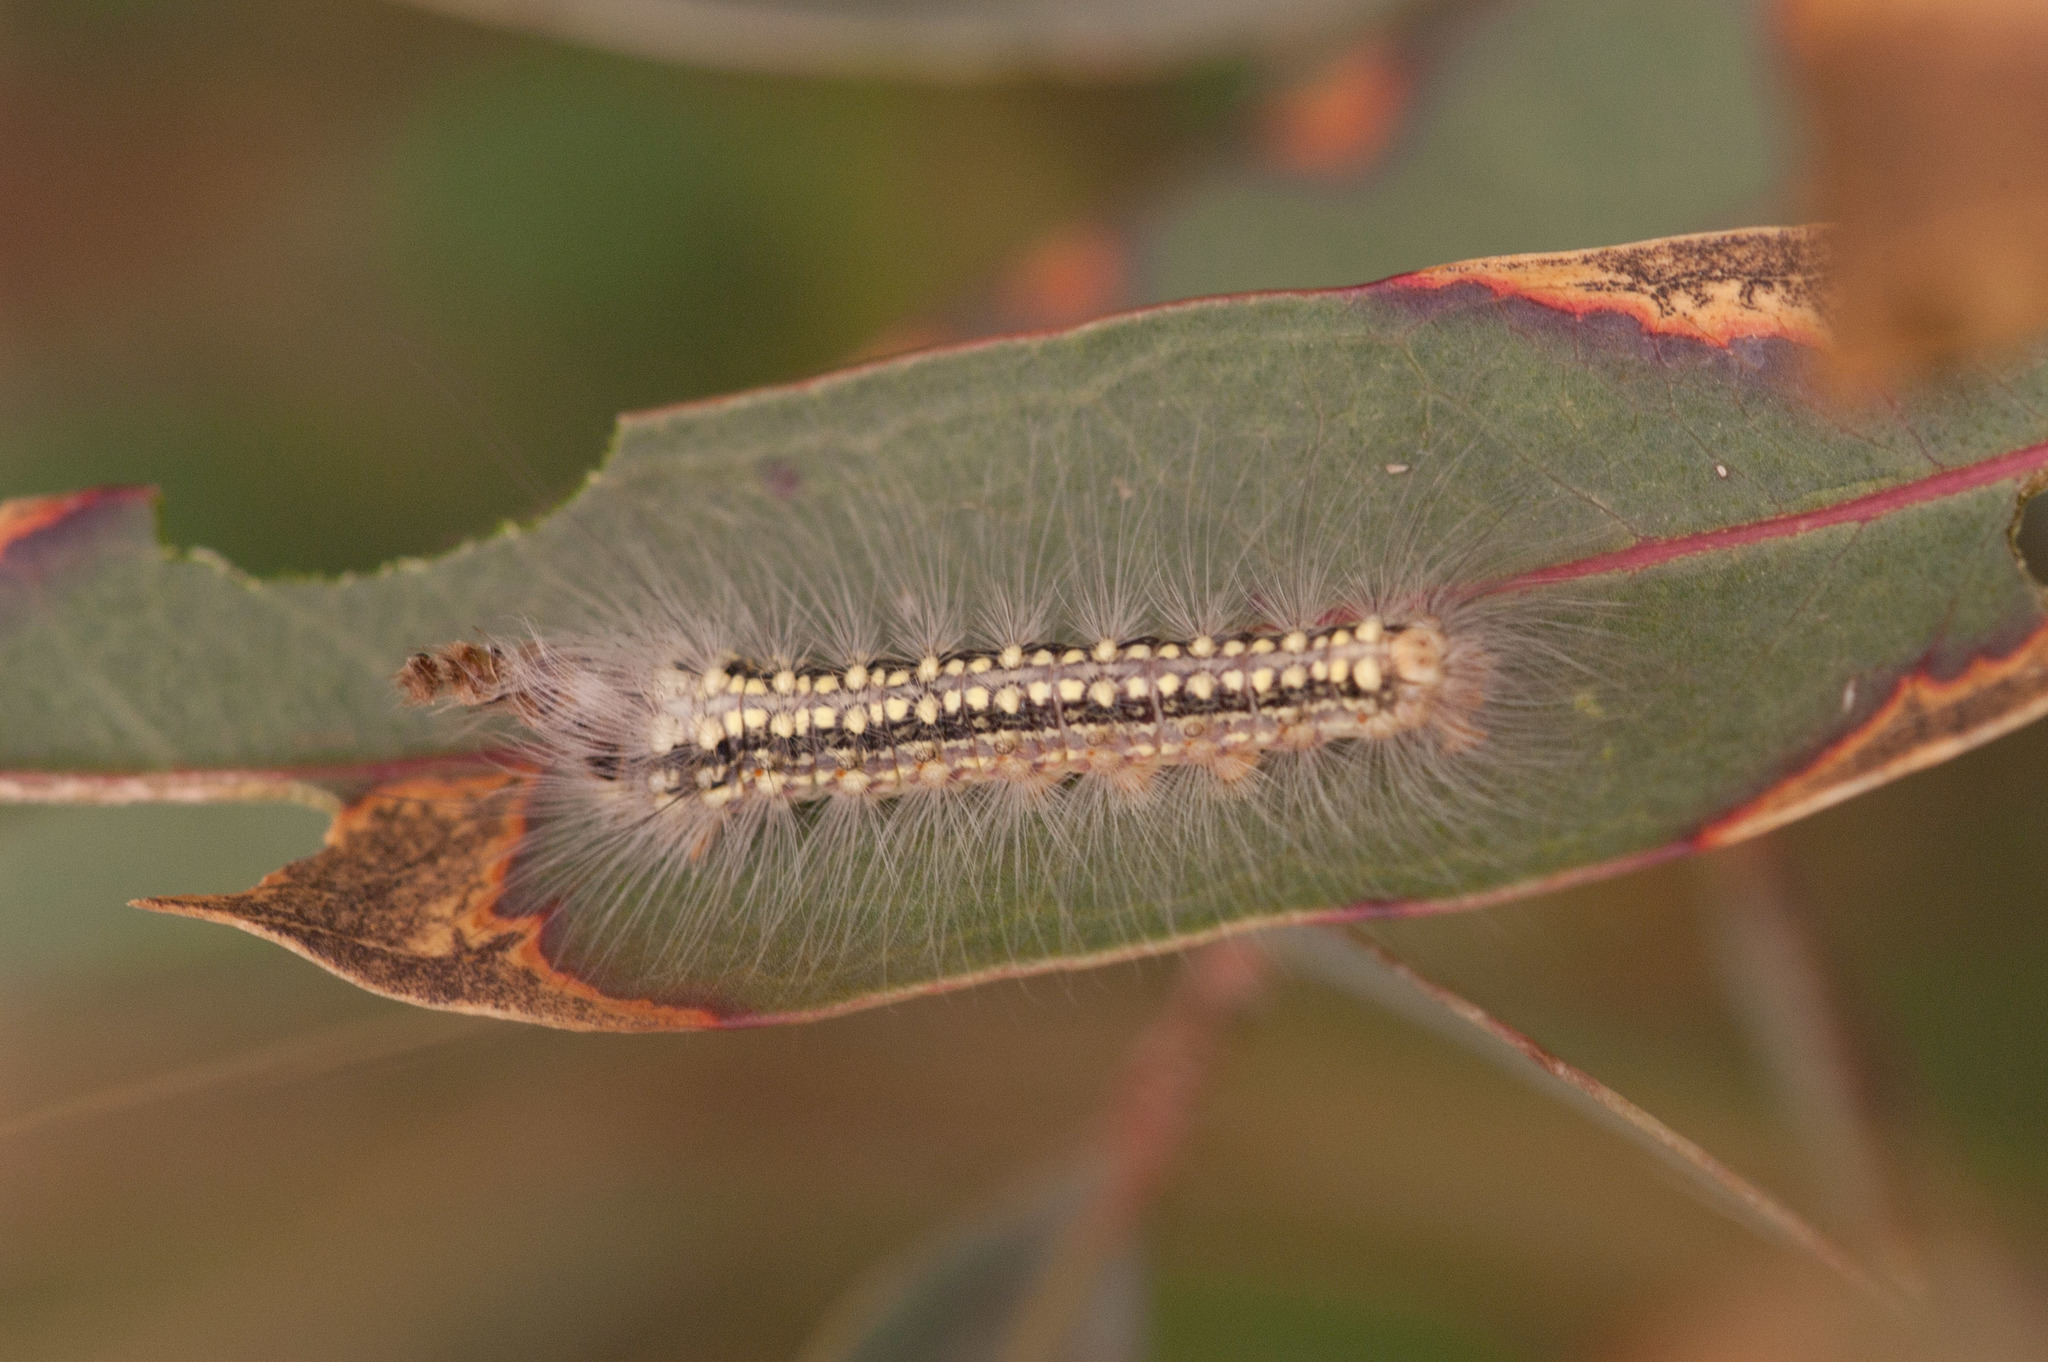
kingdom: Animalia
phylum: Arthropoda
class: Insecta
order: Lepidoptera
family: Nolidae
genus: Uraba
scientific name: Uraba lugens
